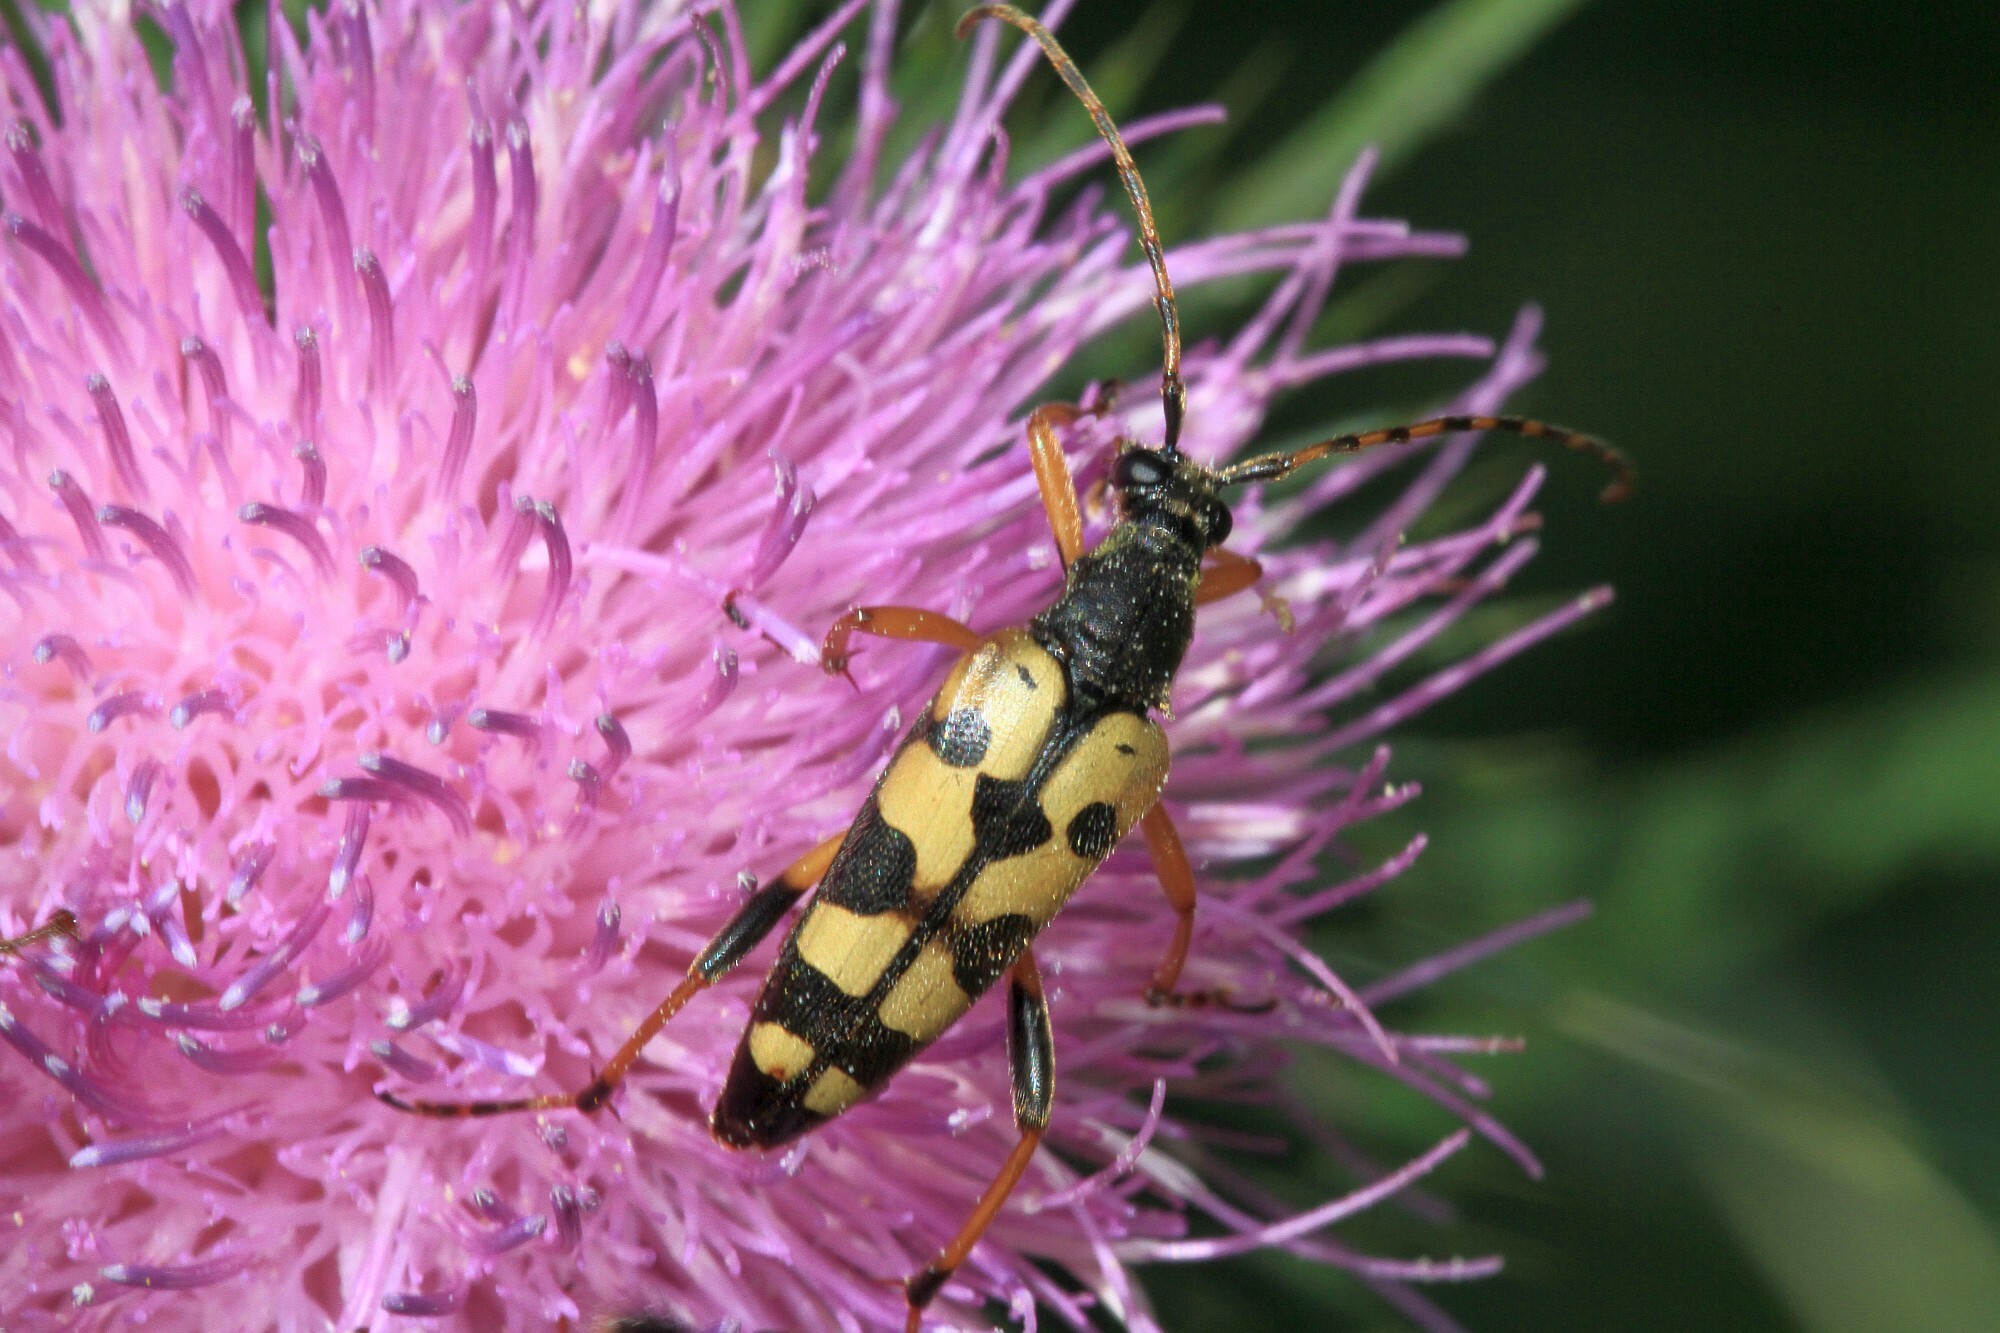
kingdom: Animalia
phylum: Arthropoda
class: Insecta
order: Coleoptera
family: Cerambycidae
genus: Rutpela
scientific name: Rutpela maculata
